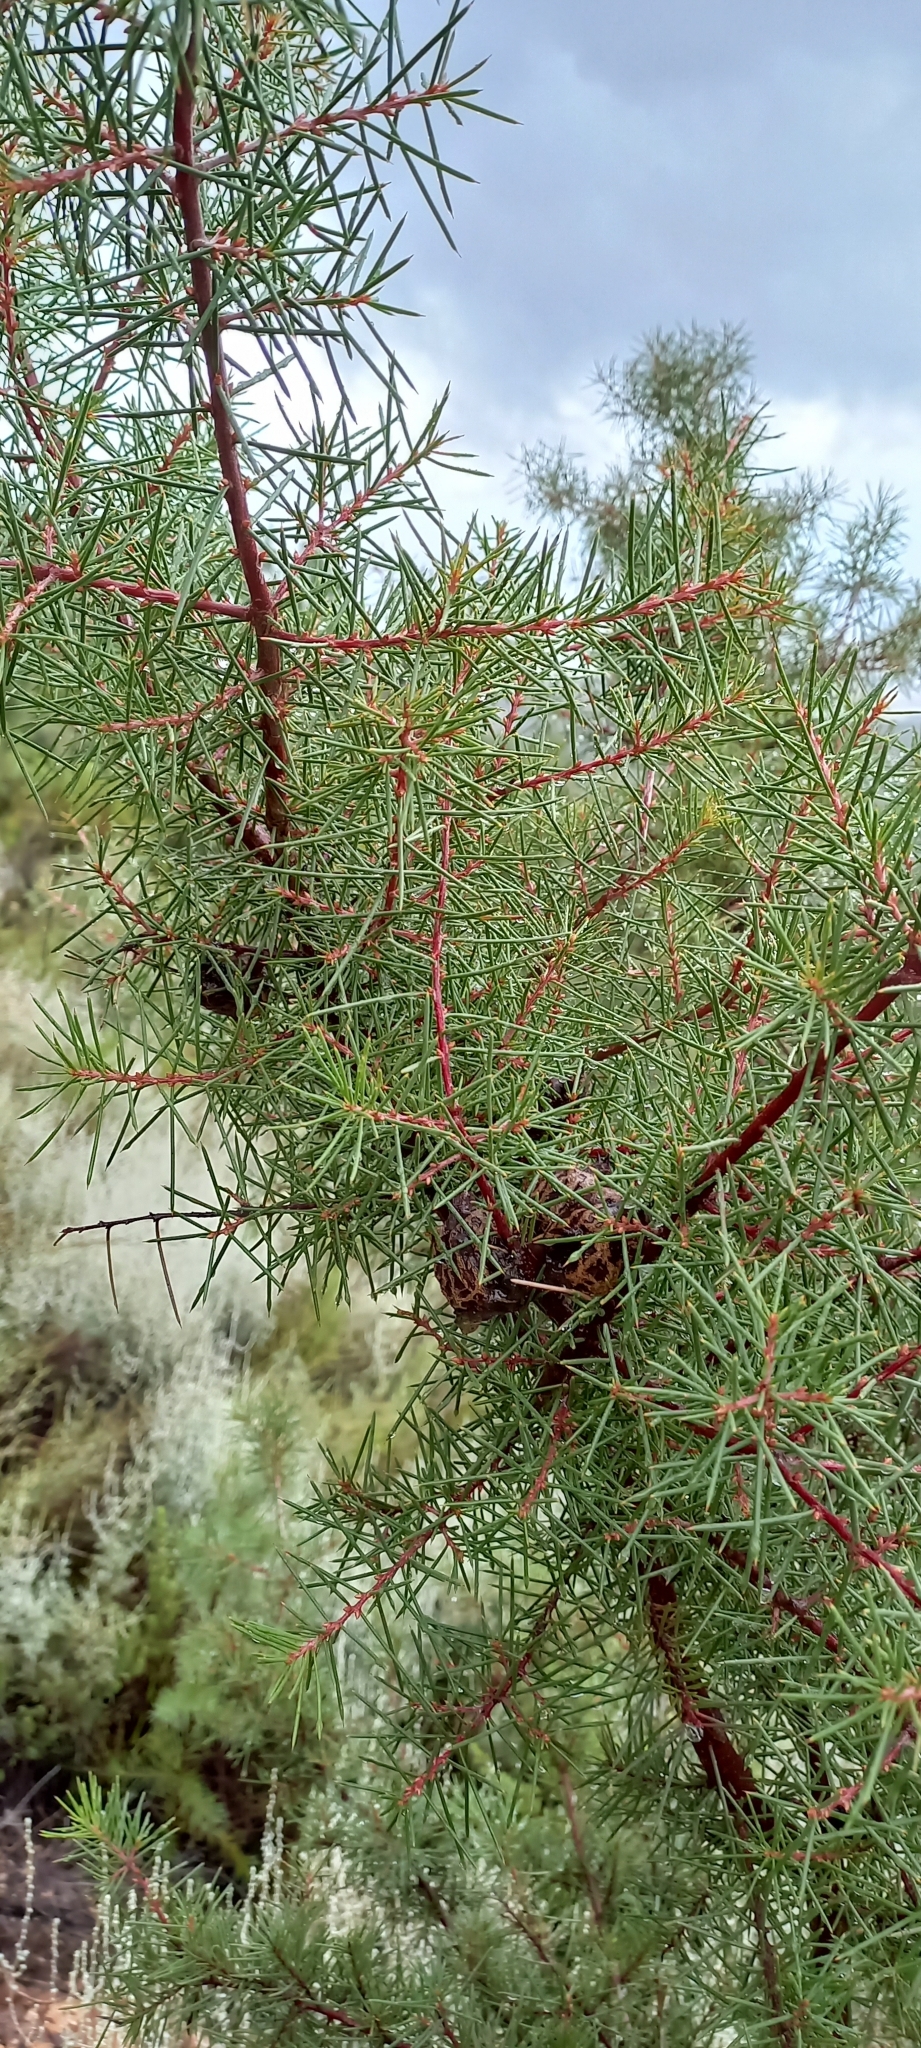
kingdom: Plantae
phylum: Tracheophyta
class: Magnoliopsida
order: Proteales
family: Proteaceae
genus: Hakea
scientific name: Hakea sericea
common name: Needle bush
